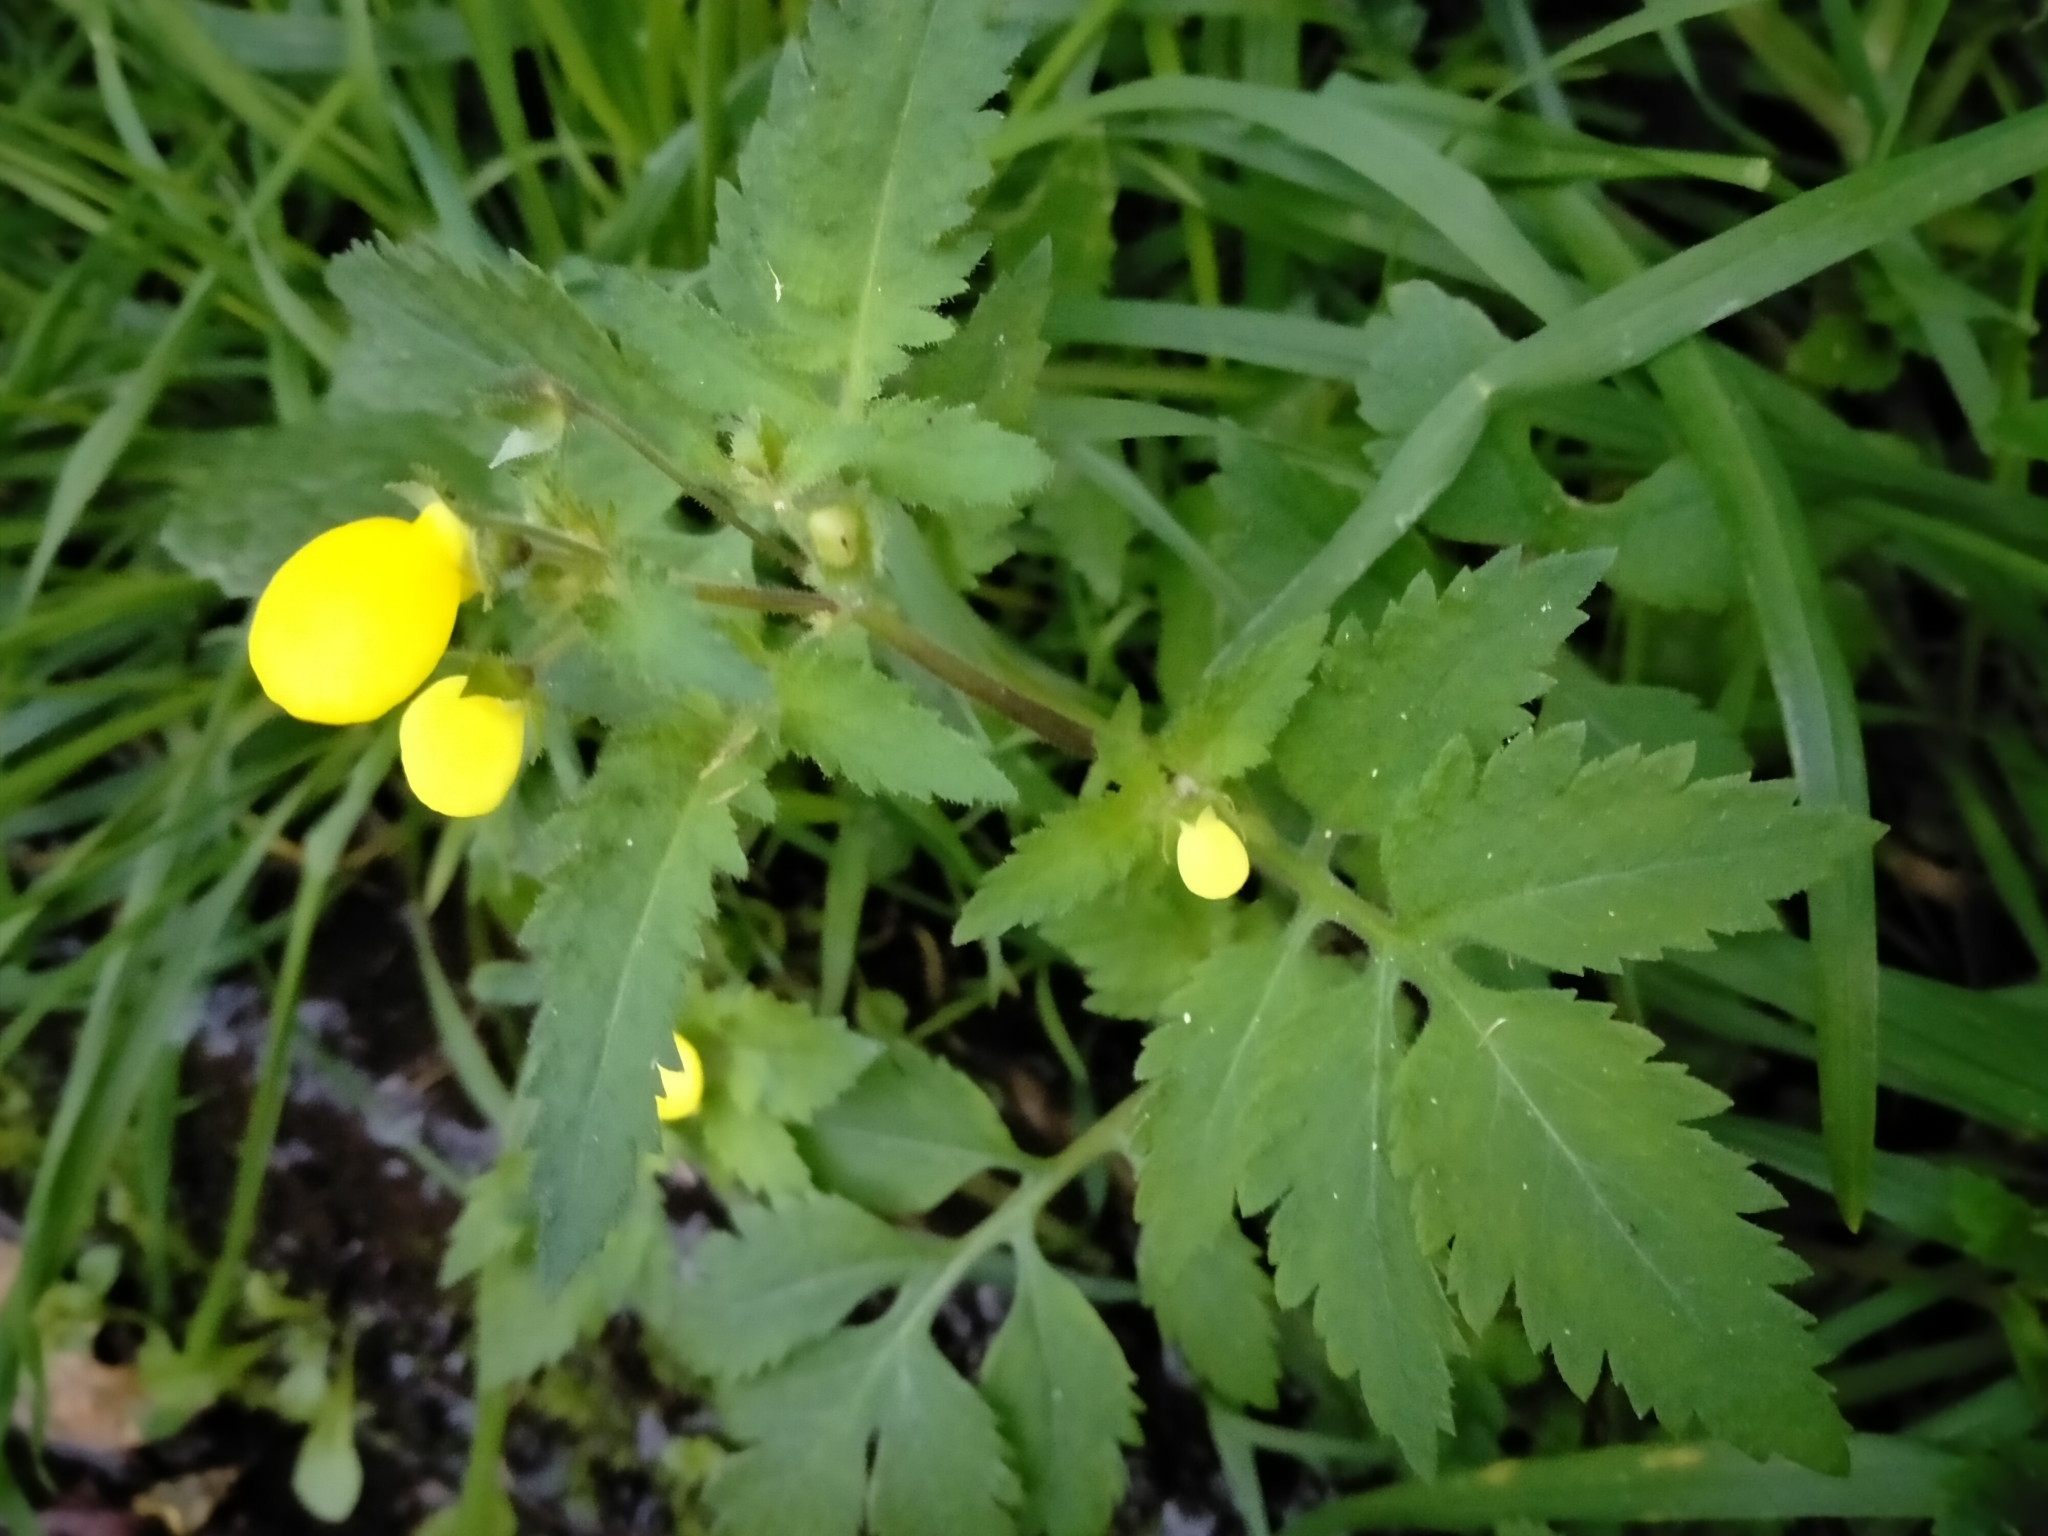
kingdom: Plantae
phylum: Tracheophyta
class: Magnoliopsida
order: Lamiales
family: Calceolariaceae
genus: Calceolaria
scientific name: Calceolaria tripartita
